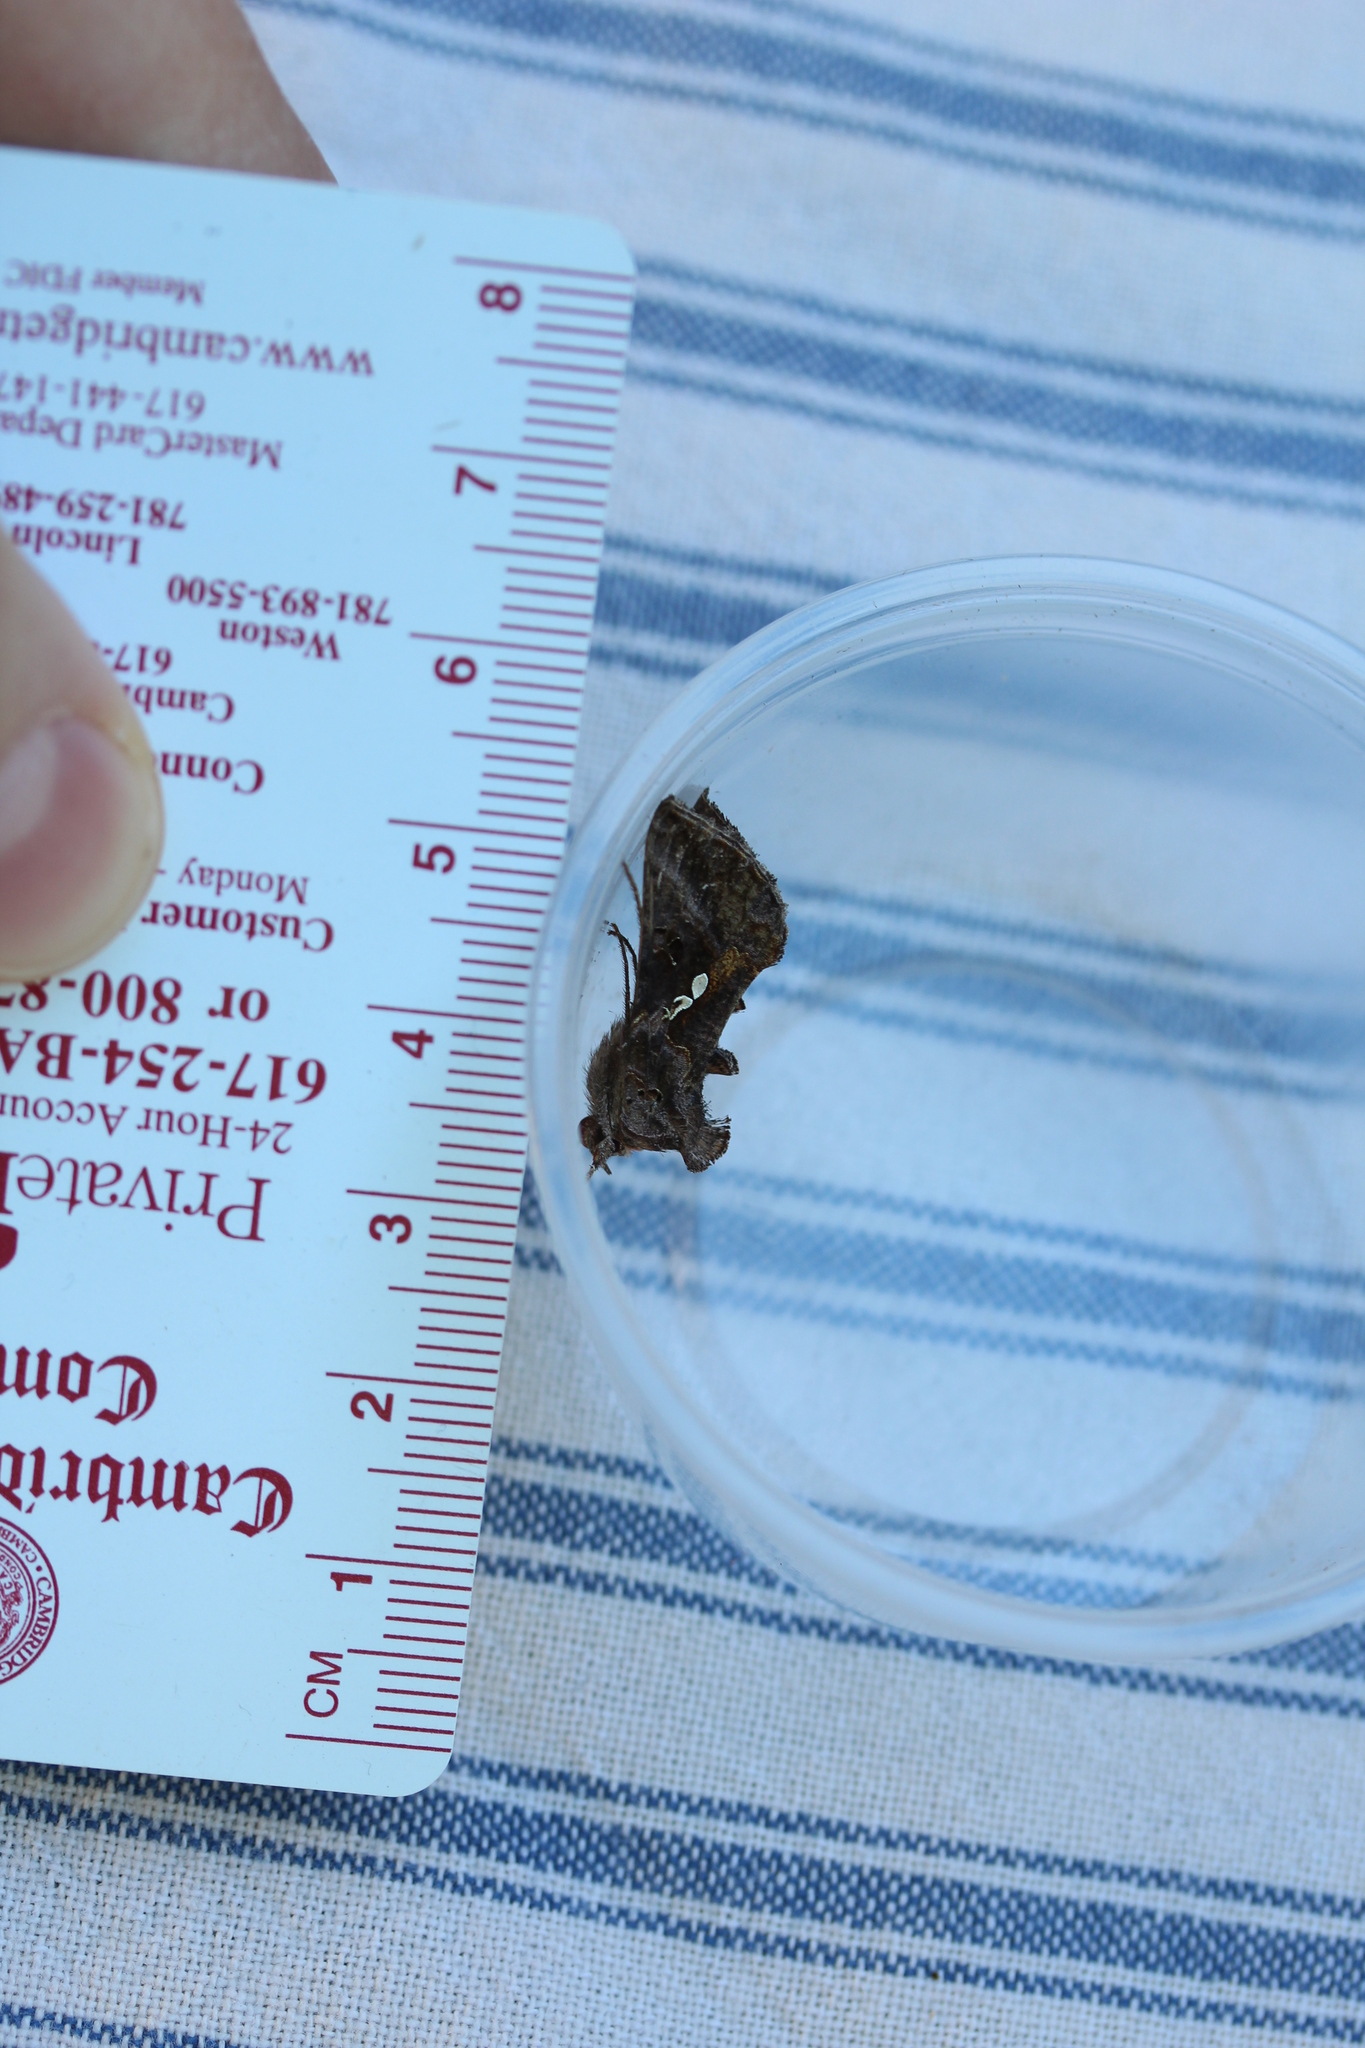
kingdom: Animalia
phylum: Arthropoda
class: Insecta
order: Lepidoptera
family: Noctuidae
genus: Autographa
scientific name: Autographa precationis
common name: Common looper moth
